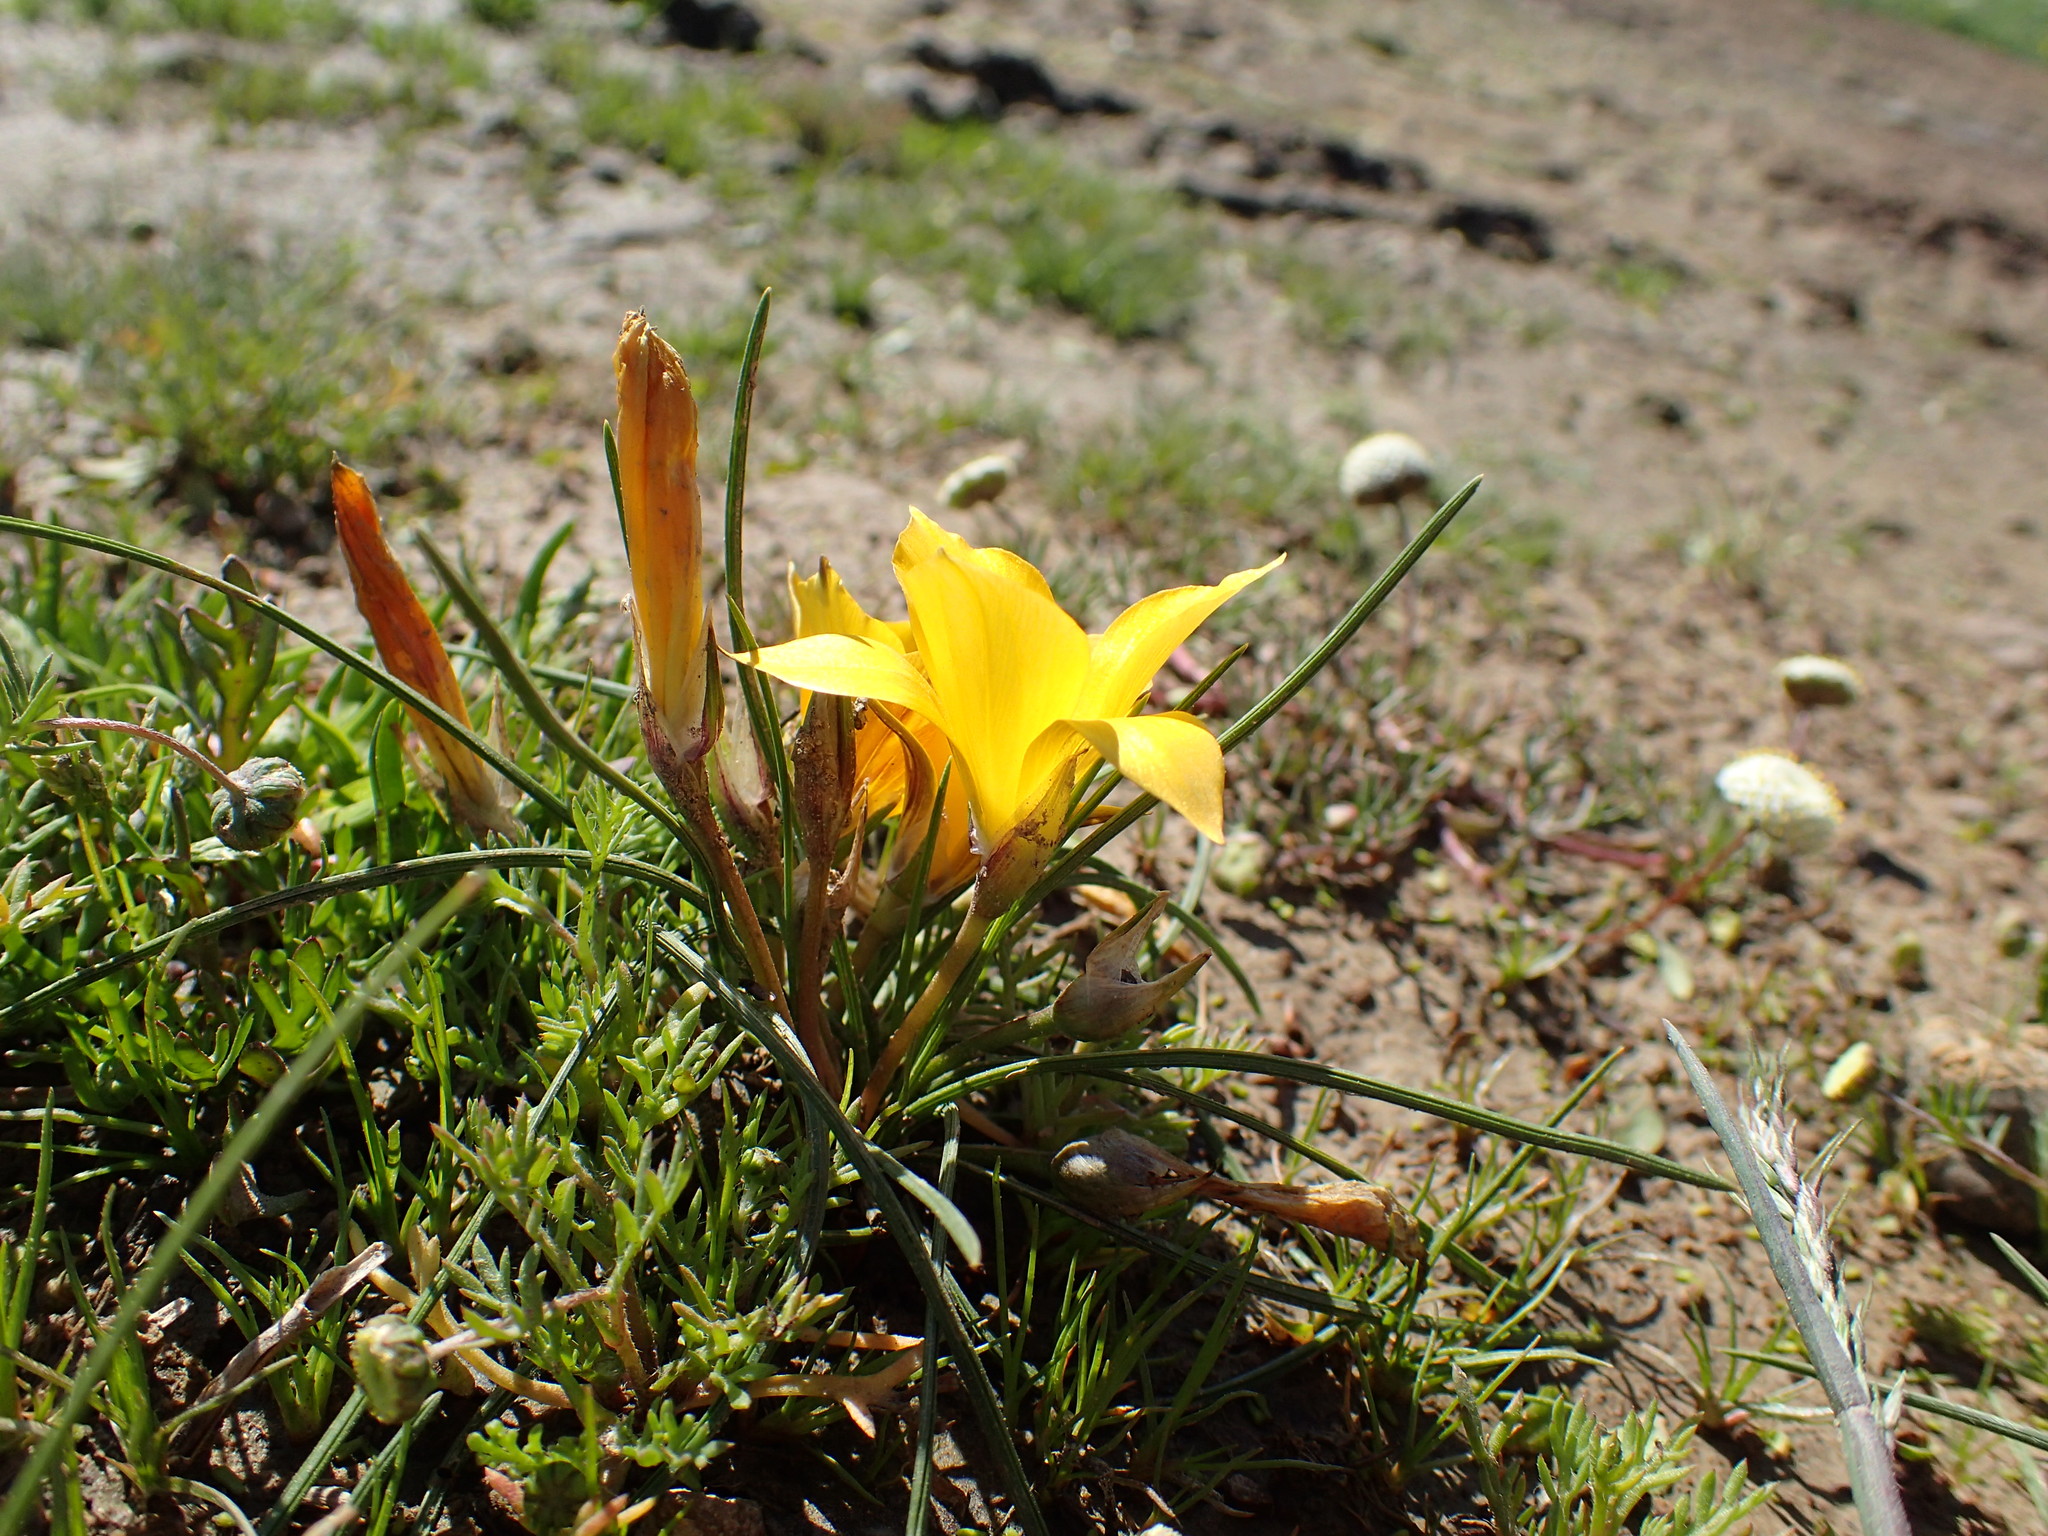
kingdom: Plantae
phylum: Tracheophyta
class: Liliopsida
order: Asparagales
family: Iridaceae
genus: Romulea
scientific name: Romulea diversiformis
